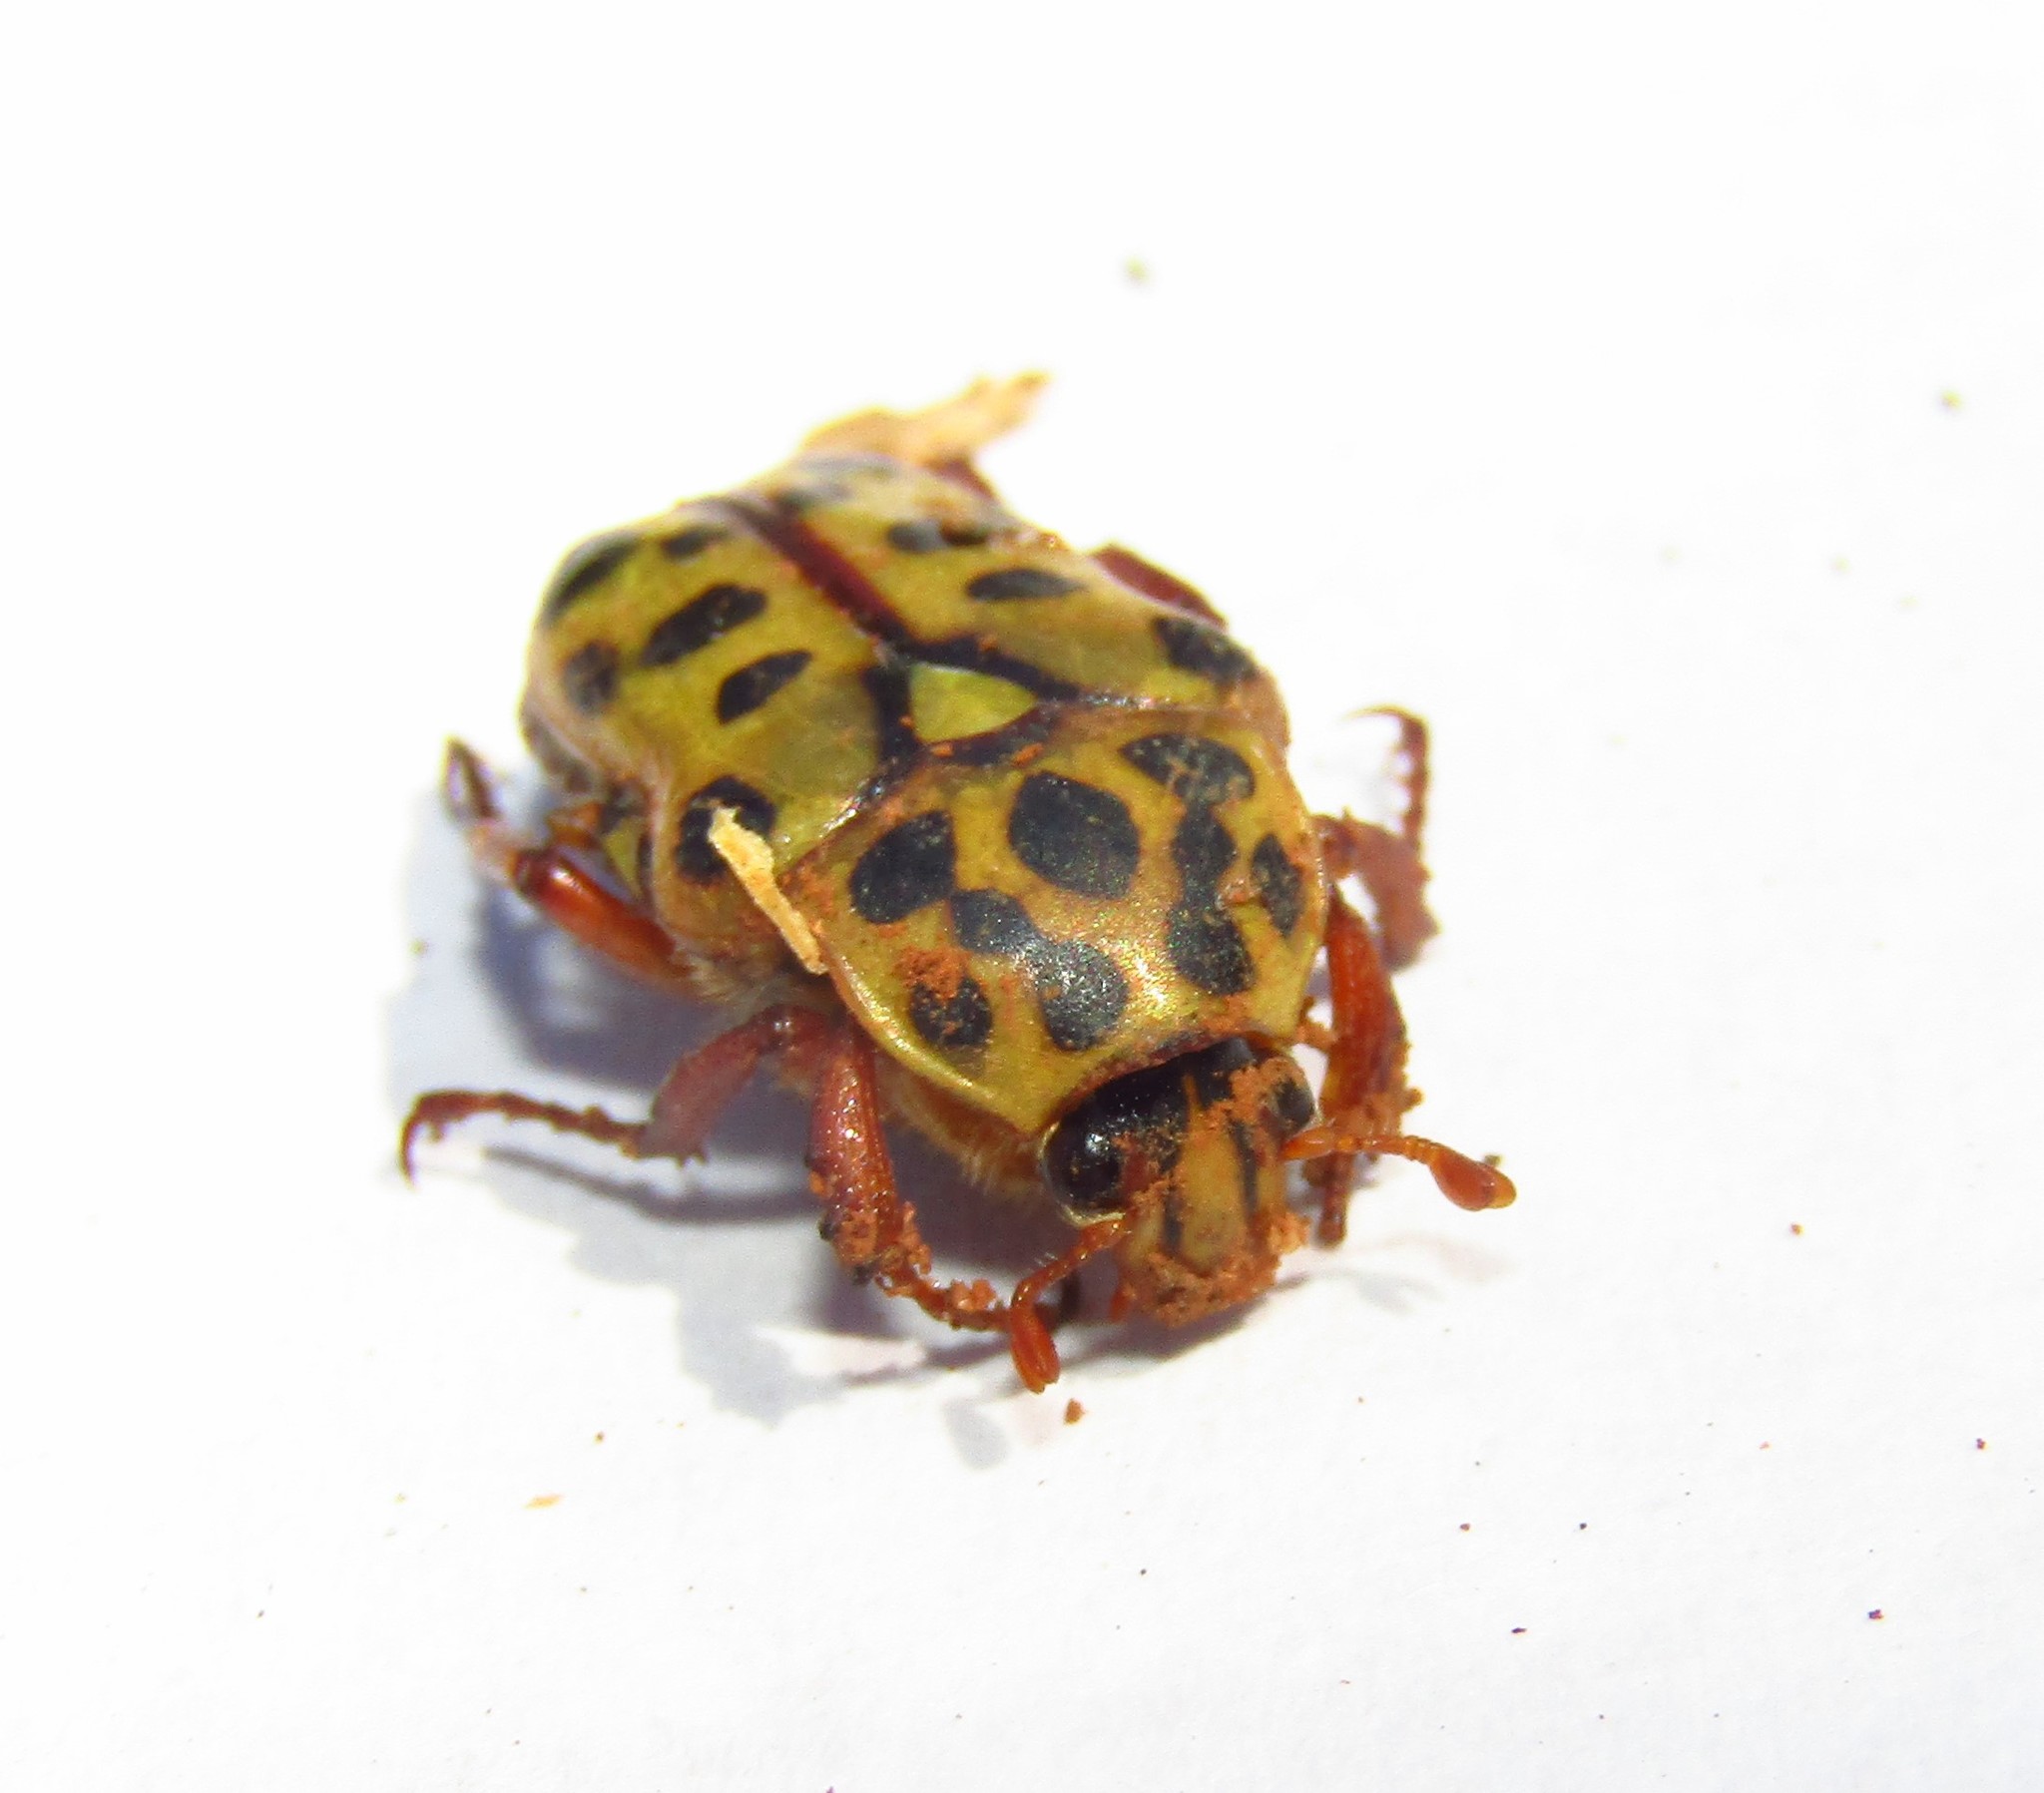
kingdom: Animalia
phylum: Arthropoda
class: Insecta
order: Coleoptera
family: Scarabaeidae
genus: Neorrhina
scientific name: Neorrhina punctatum
